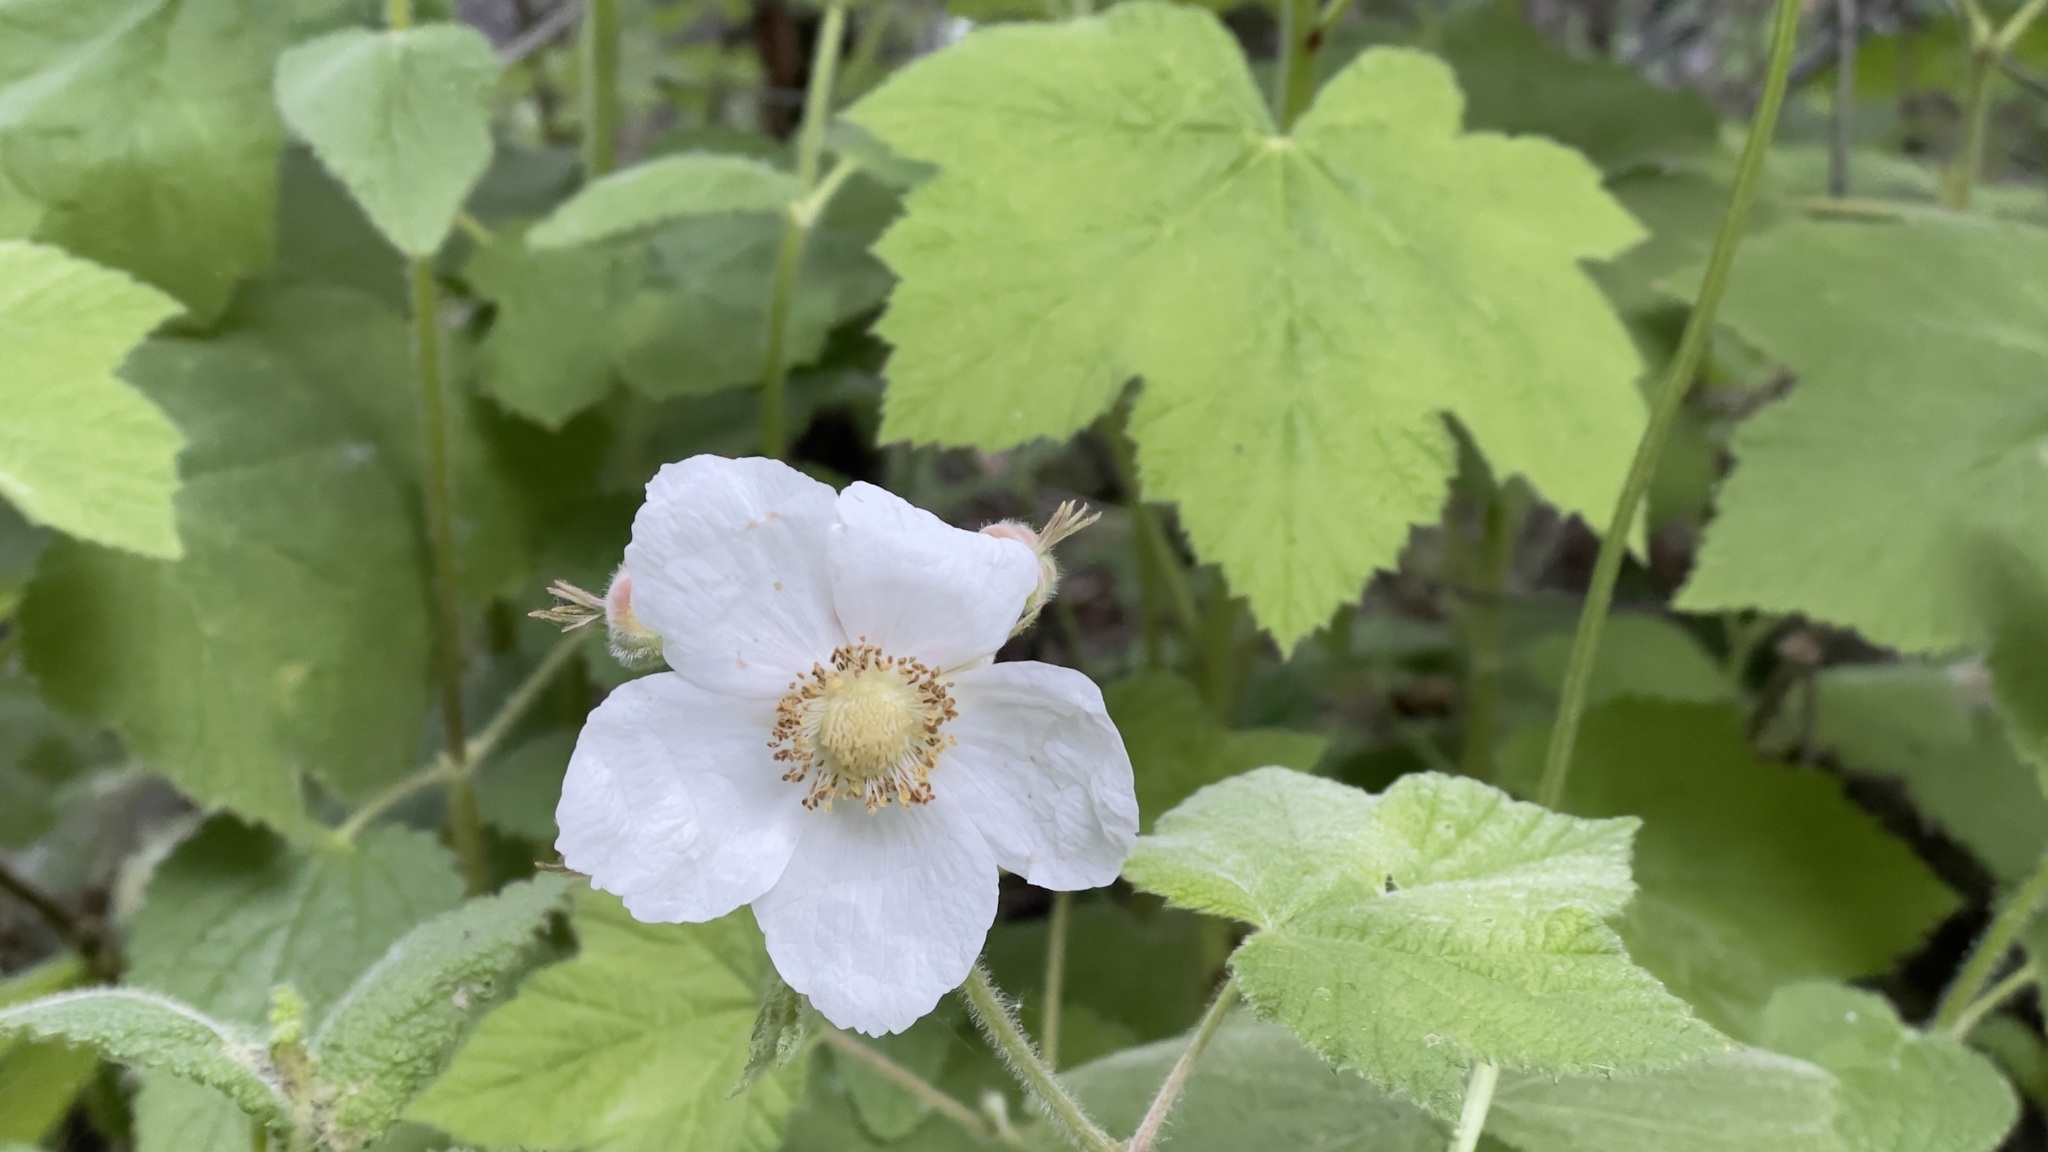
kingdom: Plantae
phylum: Tracheophyta
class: Magnoliopsida
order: Rosales
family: Rosaceae
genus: Rubus
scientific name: Rubus parviflorus
